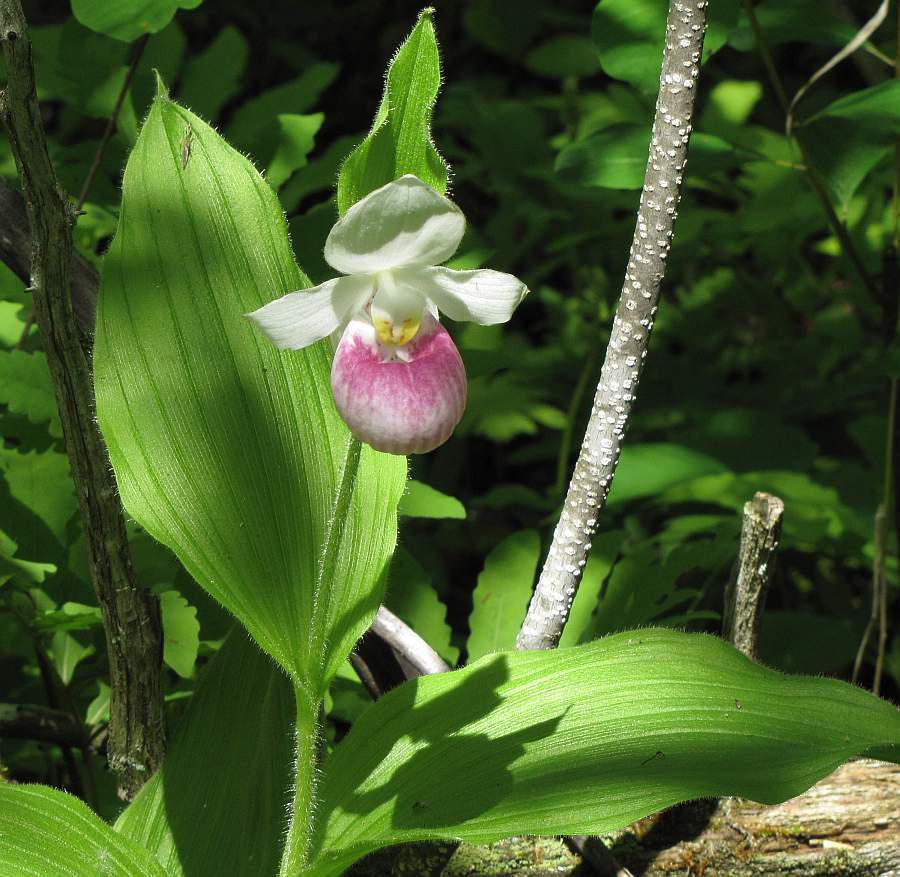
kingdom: Plantae
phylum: Tracheophyta
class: Liliopsida
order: Asparagales
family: Orchidaceae
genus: Cypripedium
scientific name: Cypripedium reginae
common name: Queen lady's-slipper
